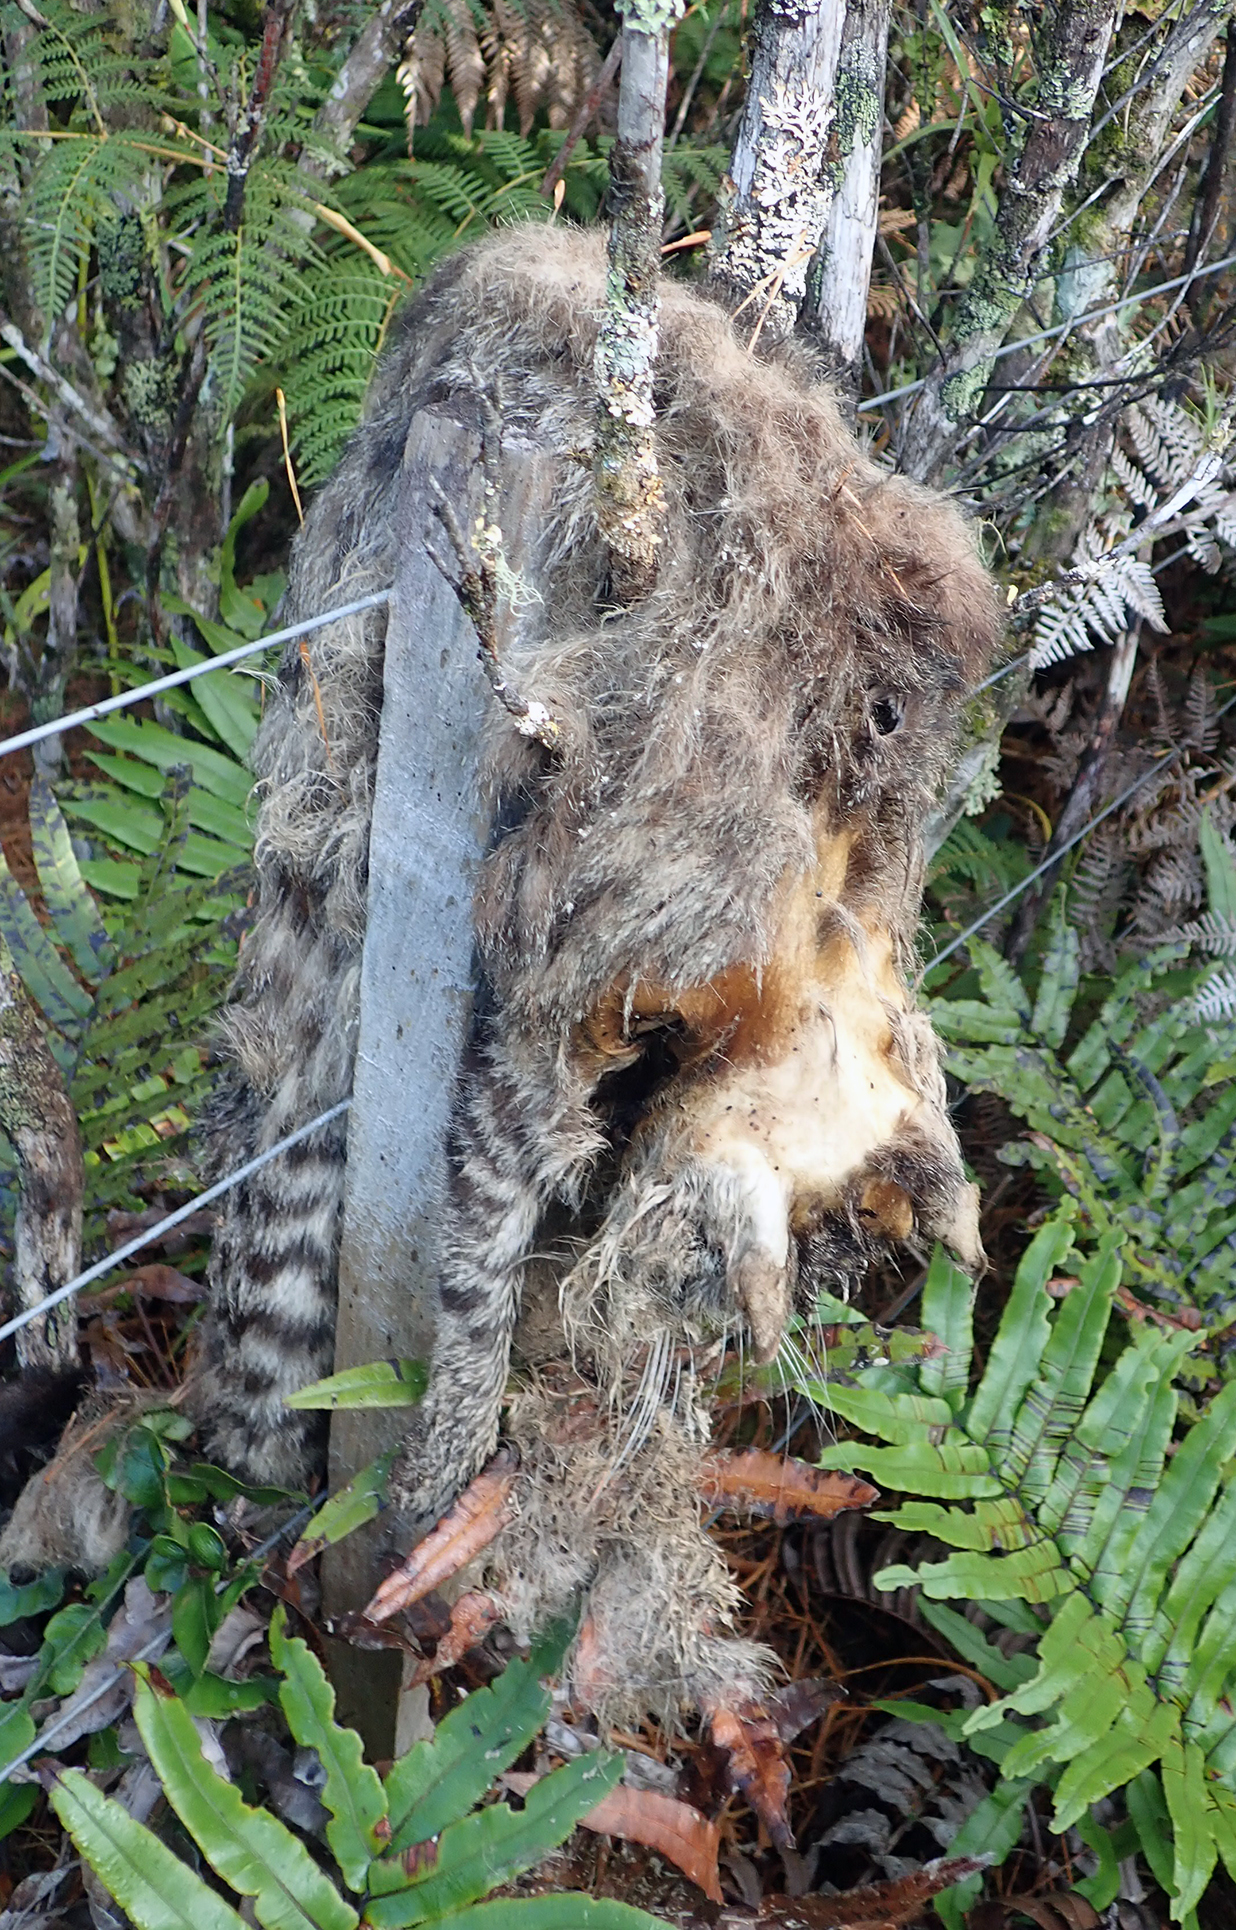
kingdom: Animalia
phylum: Chordata
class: Mammalia
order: Carnivora
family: Felidae
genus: Felis
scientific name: Felis catus
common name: Domestic cat
